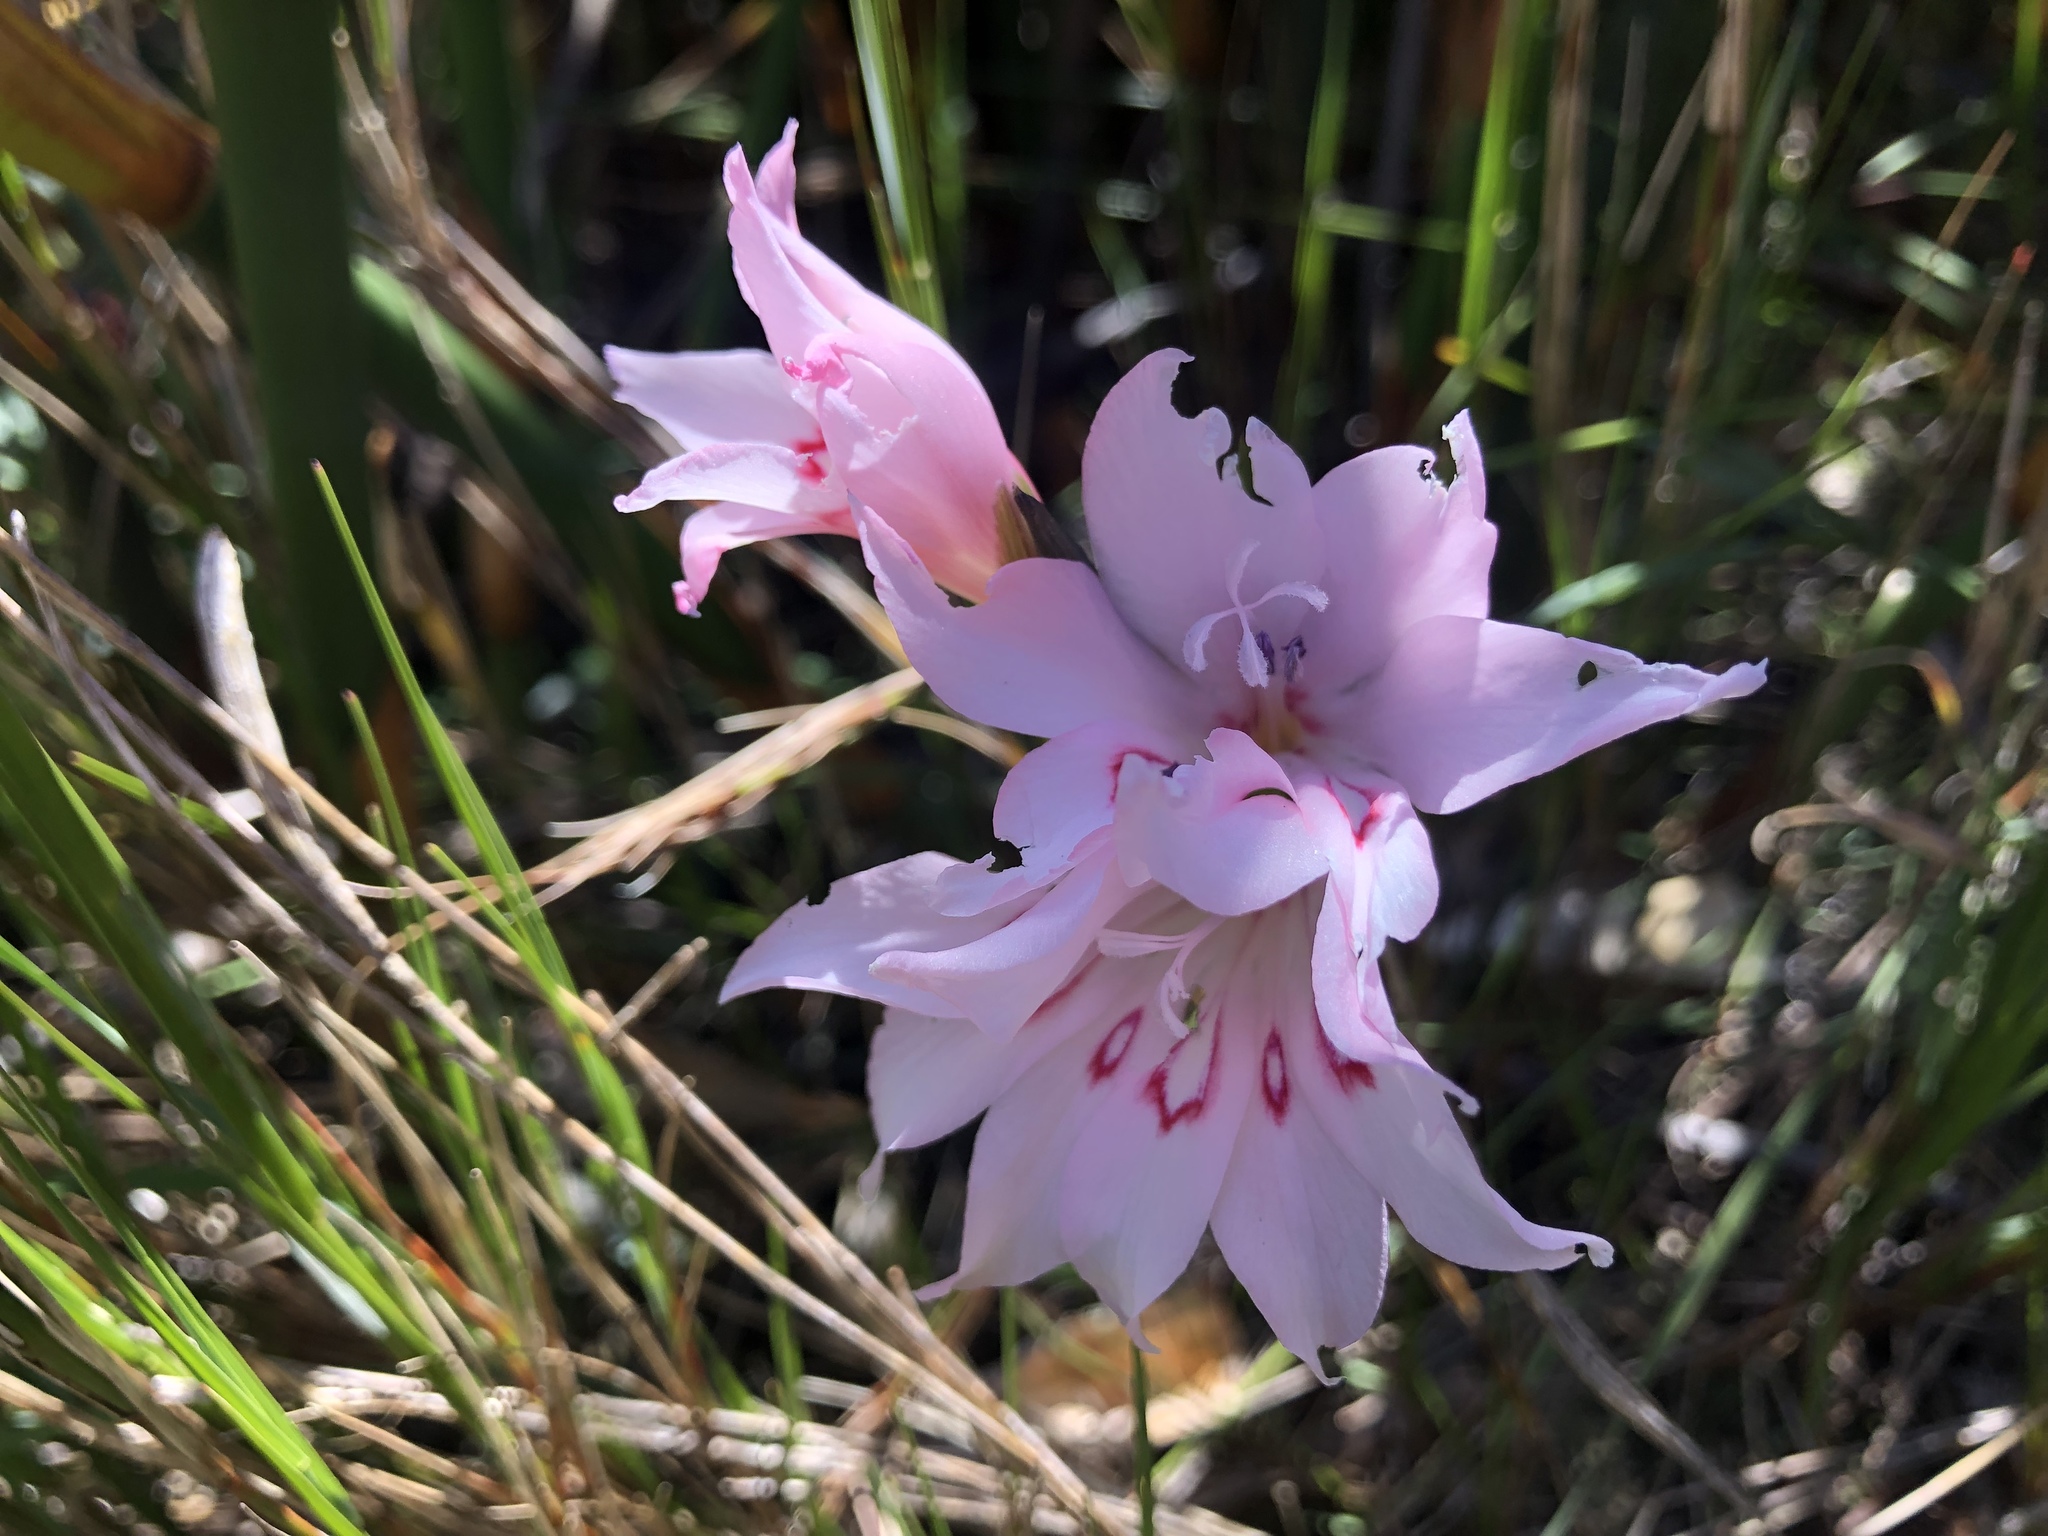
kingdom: Plantae
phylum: Tracheophyta
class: Liliopsida
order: Asparagales
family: Iridaceae
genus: Gladiolus
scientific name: Gladiolus pappei
